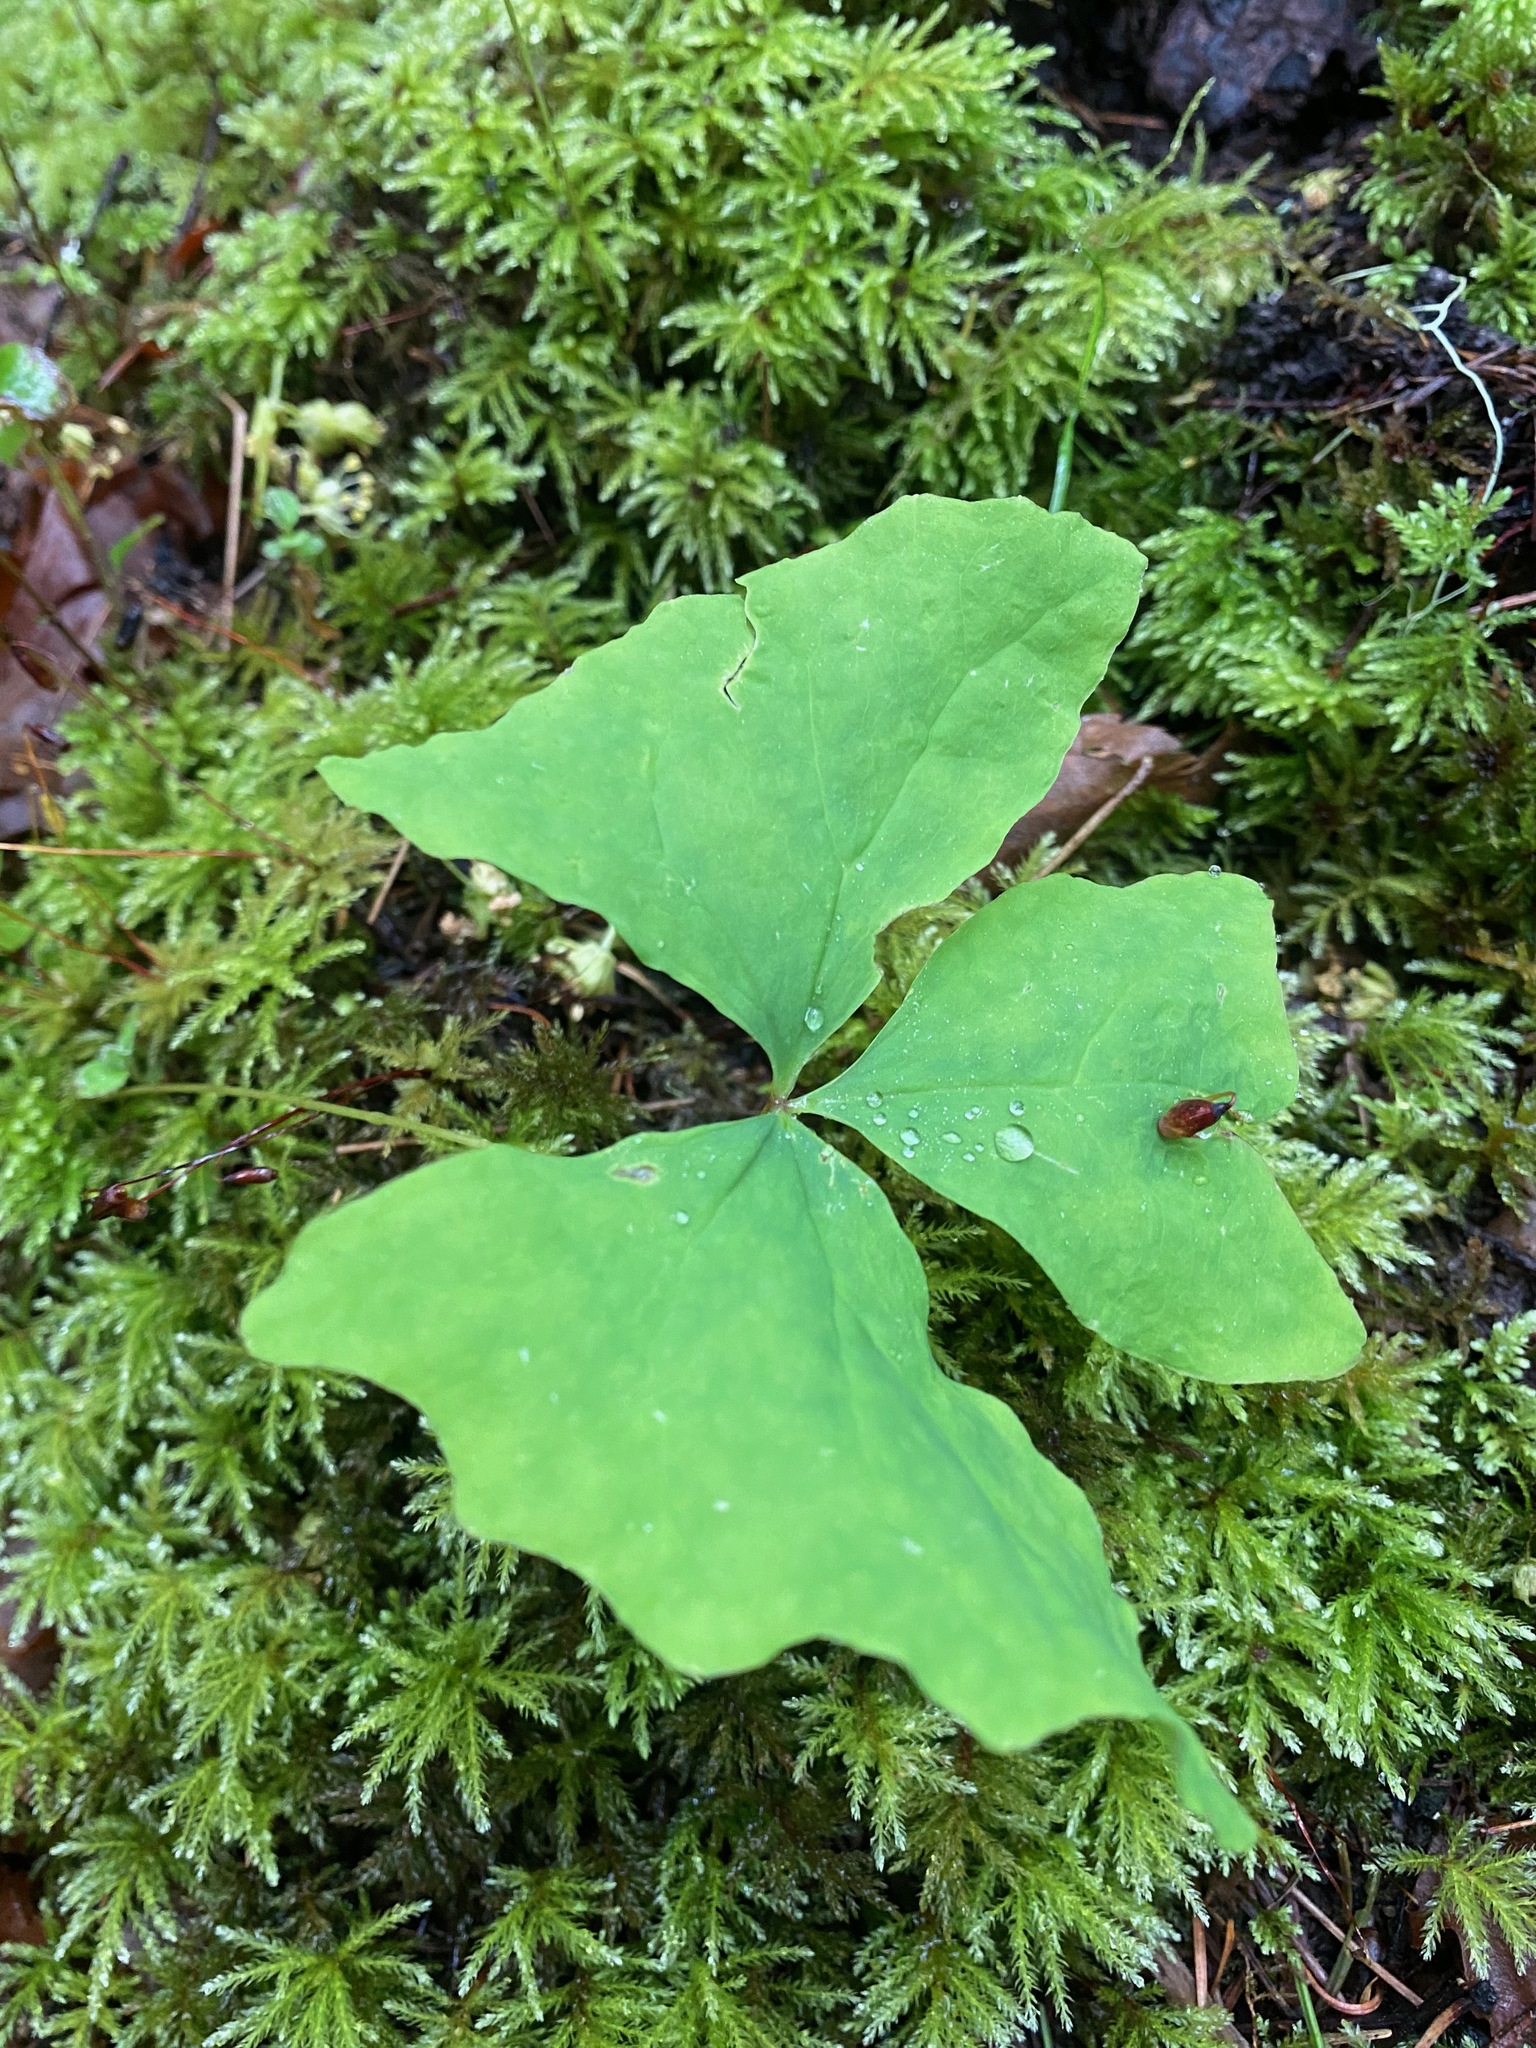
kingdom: Plantae
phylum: Tracheophyta
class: Magnoliopsida
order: Ranunculales
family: Berberidaceae
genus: Achlys
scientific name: Achlys triphylla
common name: Vanilla-leaf
